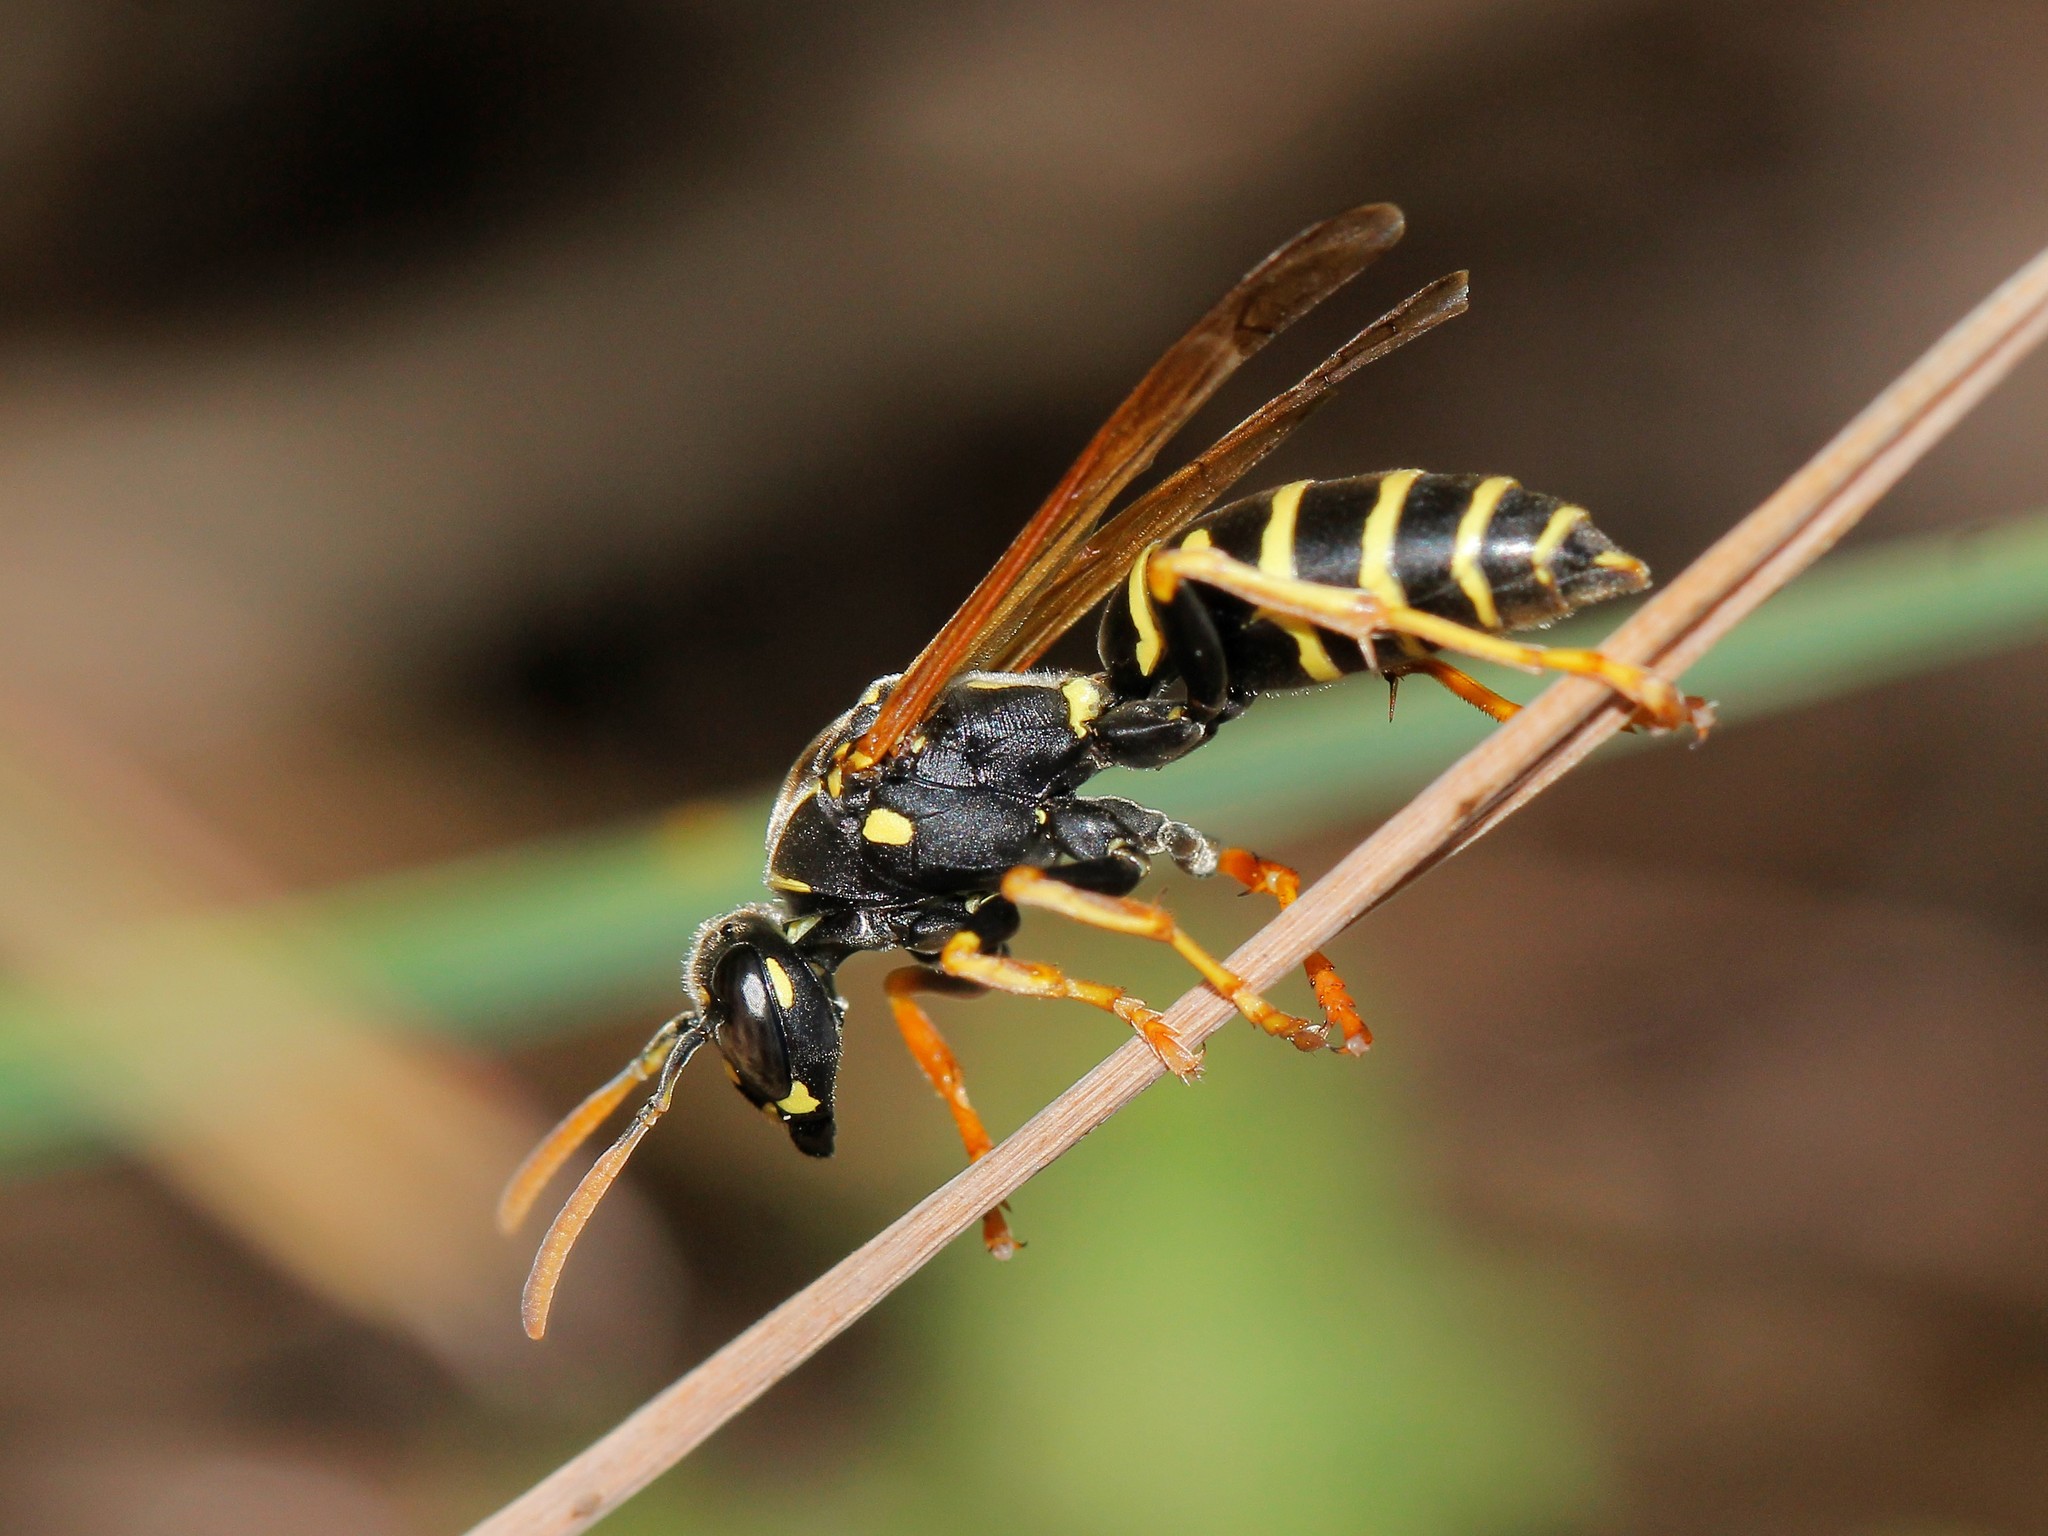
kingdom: Animalia
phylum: Arthropoda
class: Insecta
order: Hymenoptera
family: Eumenidae
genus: Polistes
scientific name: Polistes nimpha
